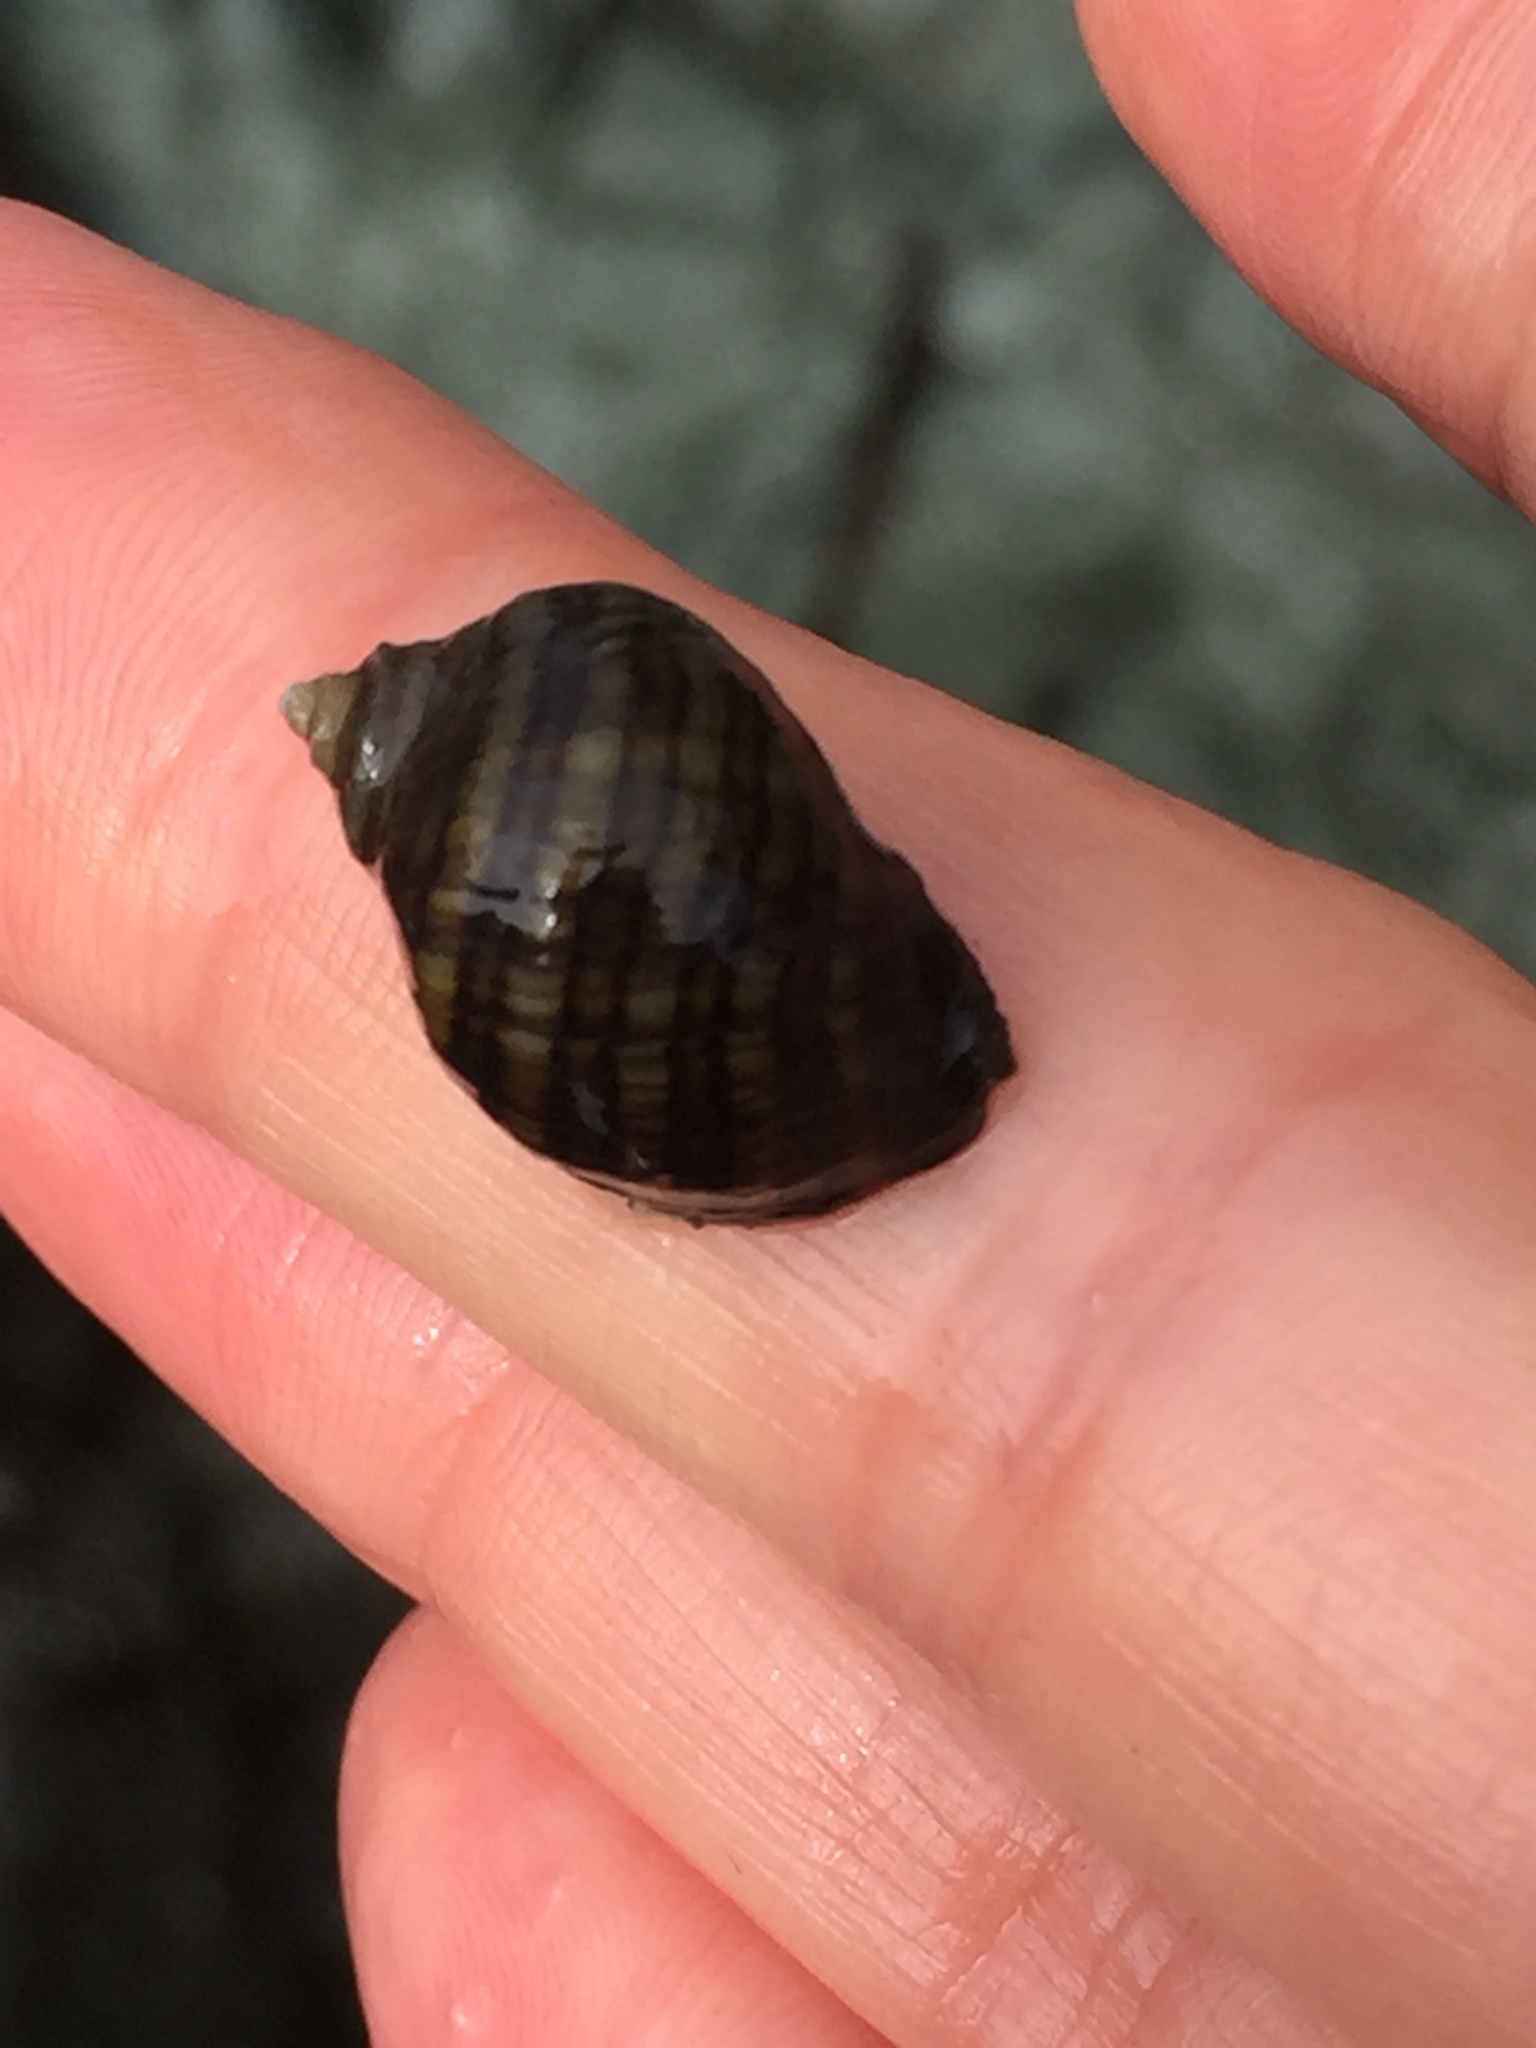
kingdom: Animalia
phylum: Mollusca
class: Gastropoda
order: Neogastropoda
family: Muricidae
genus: Nucella
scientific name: Nucella ostrina
